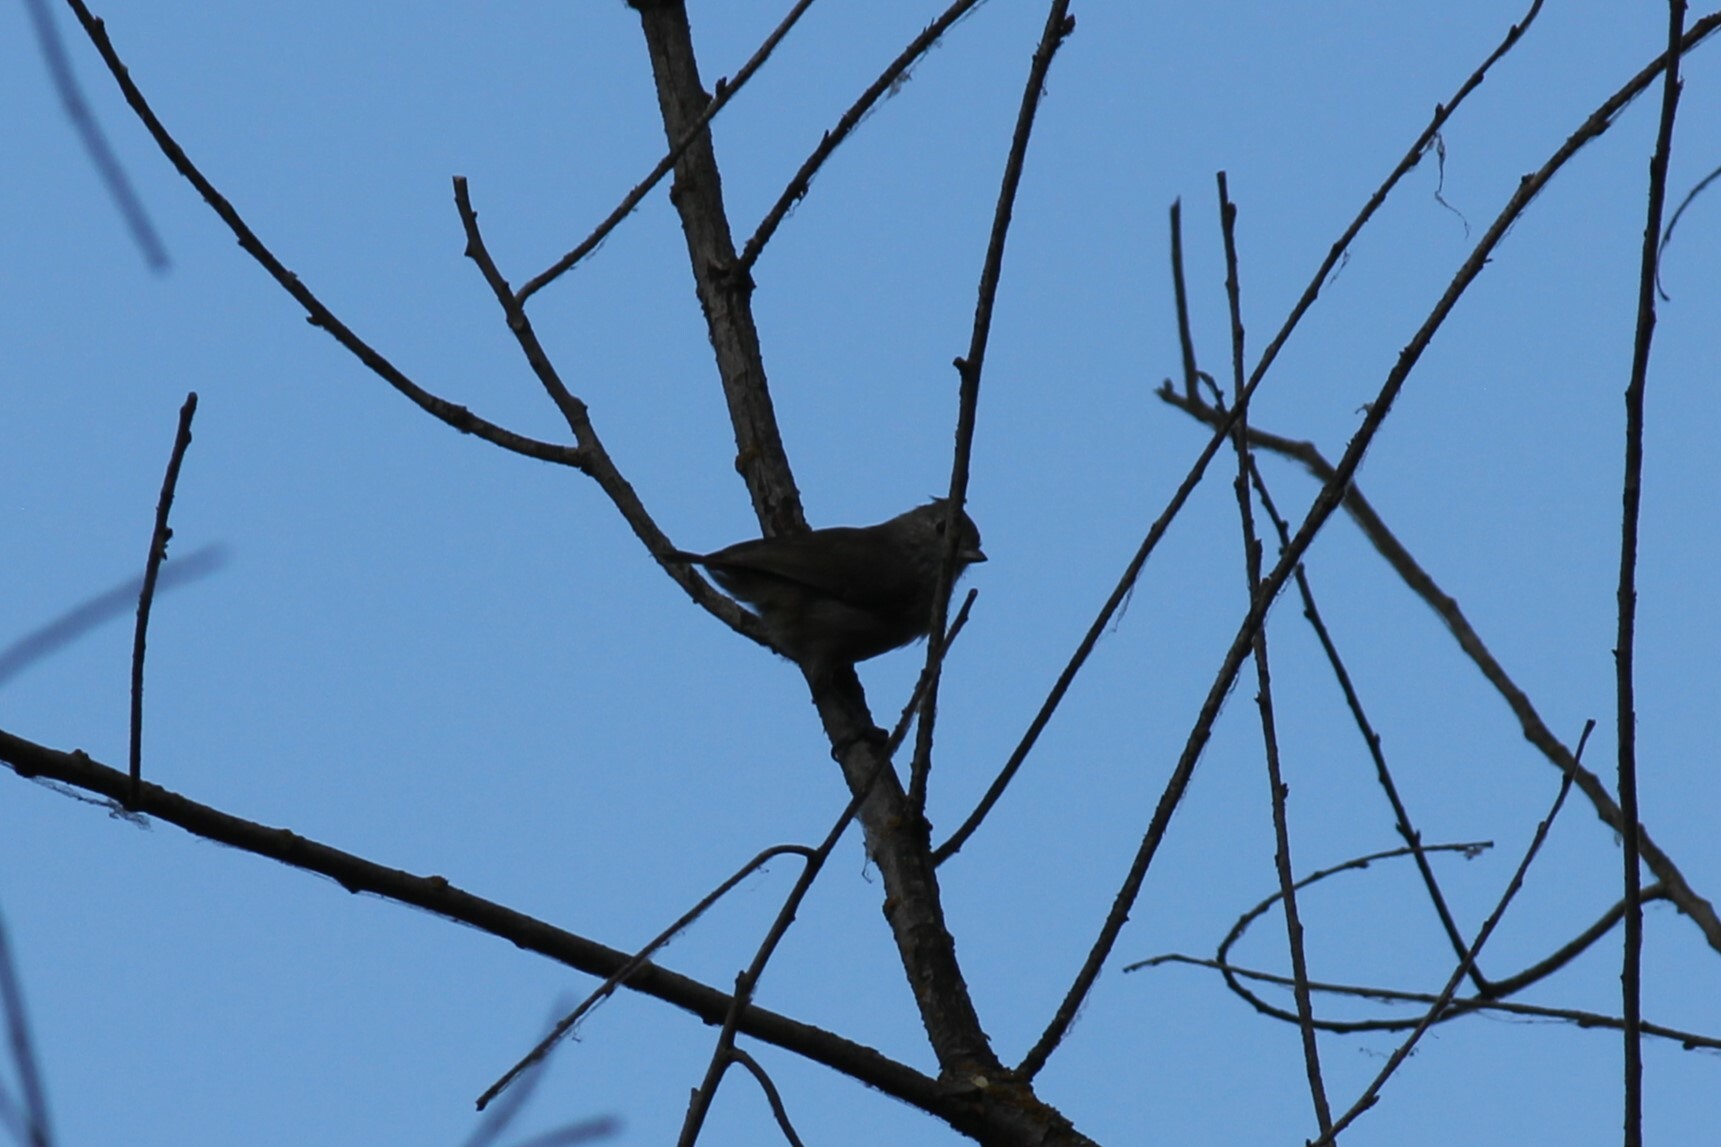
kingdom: Animalia
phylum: Chordata
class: Aves
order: Passeriformes
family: Paridae
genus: Baeolophus
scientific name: Baeolophus inornatus
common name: Oak titmouse
